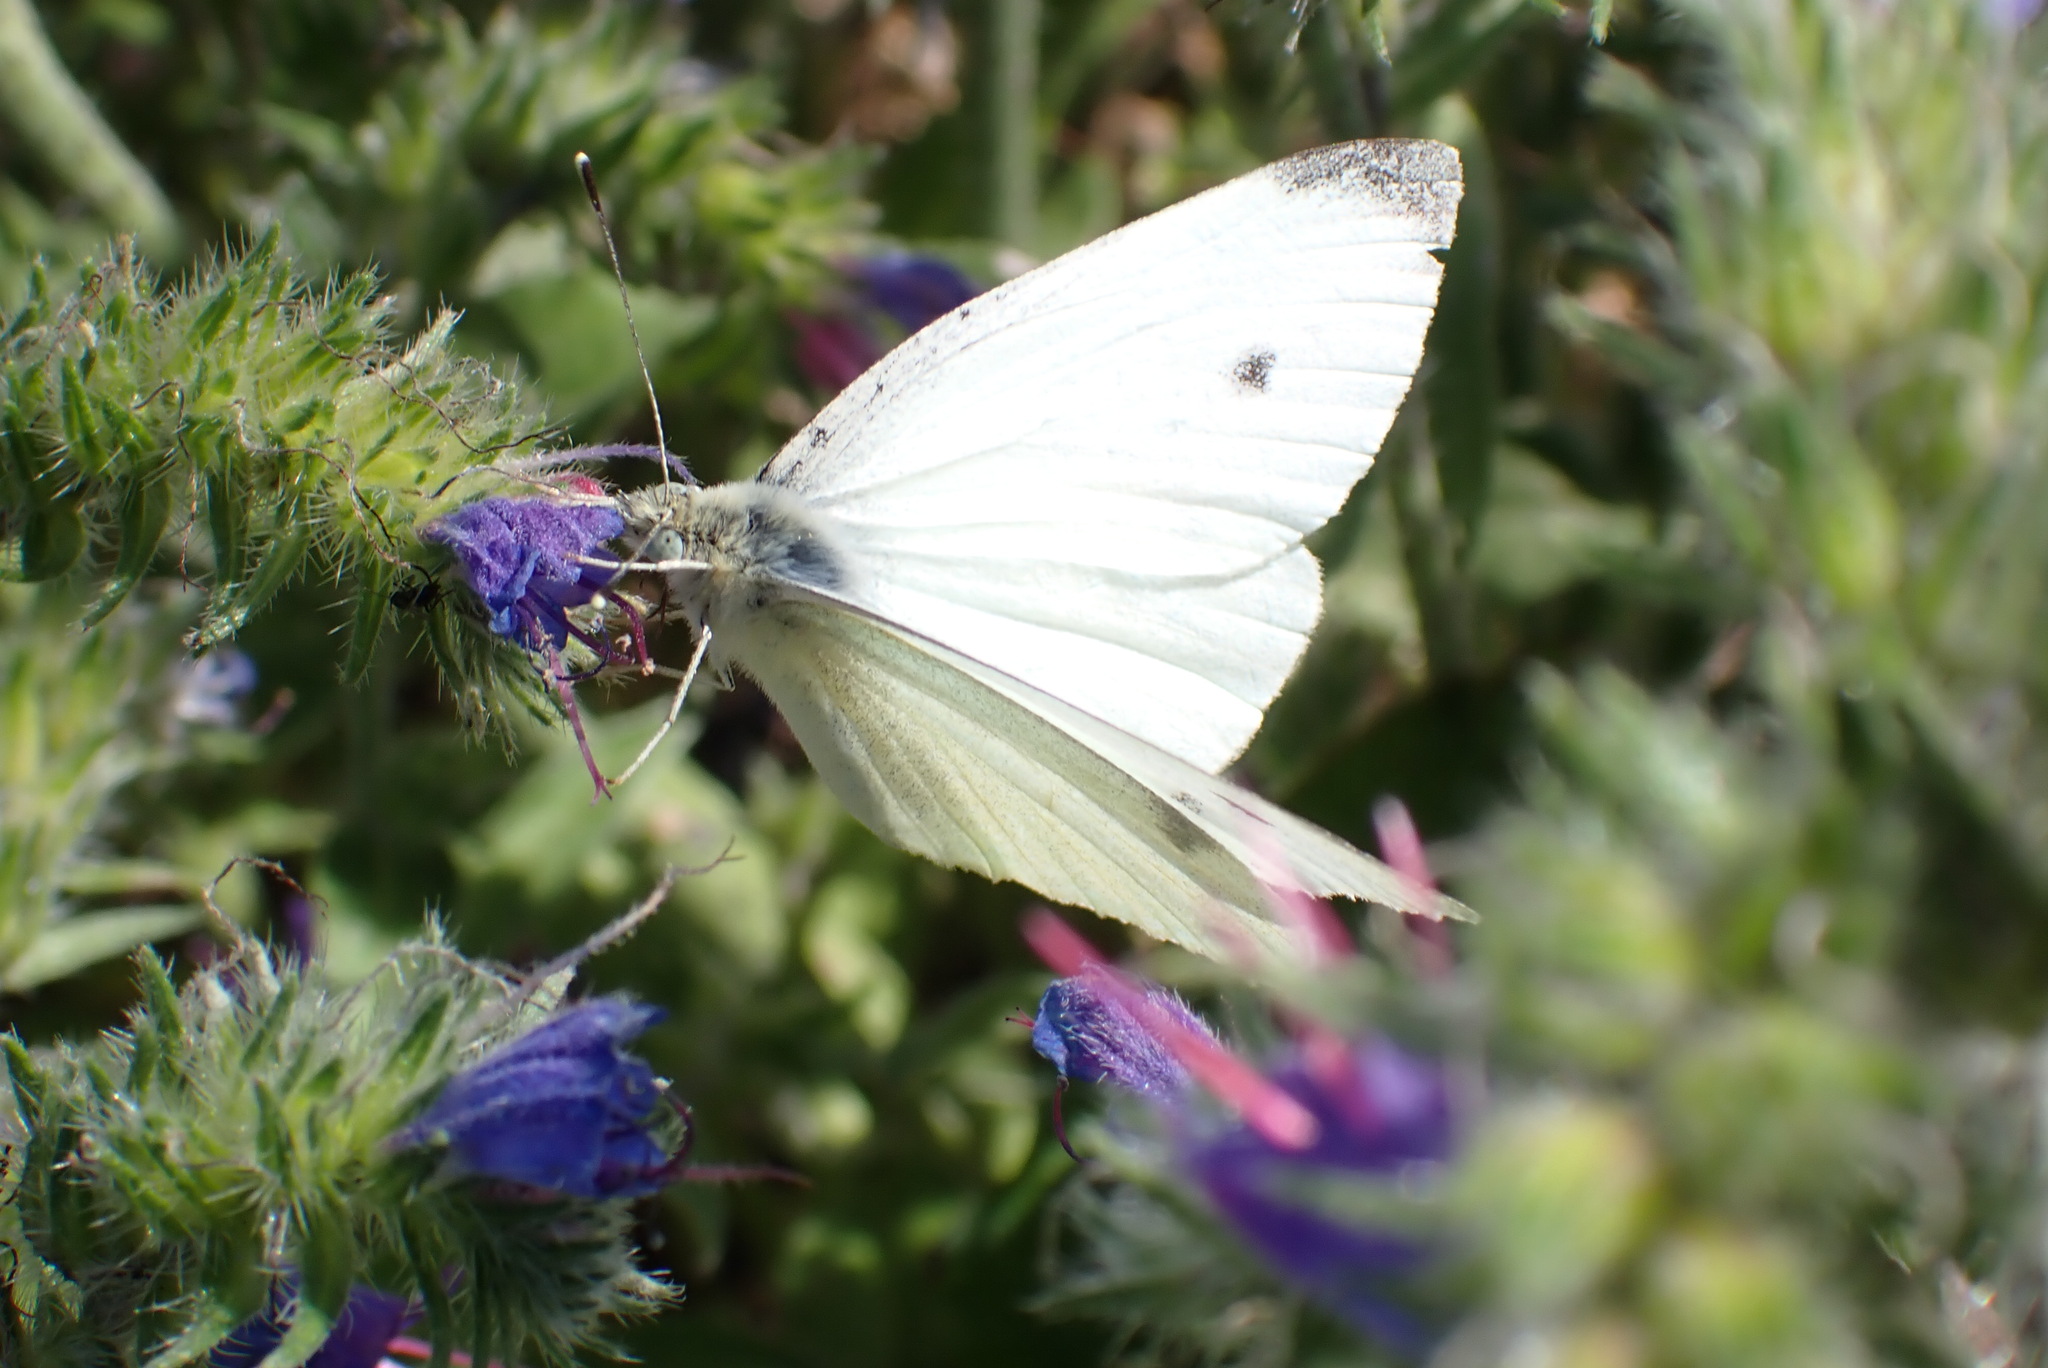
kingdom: Animalia
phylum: Arthropoda
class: Insecta
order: Lepidoptera
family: Pieridae
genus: Pieris
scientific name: Pieris rapae
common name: Small white
